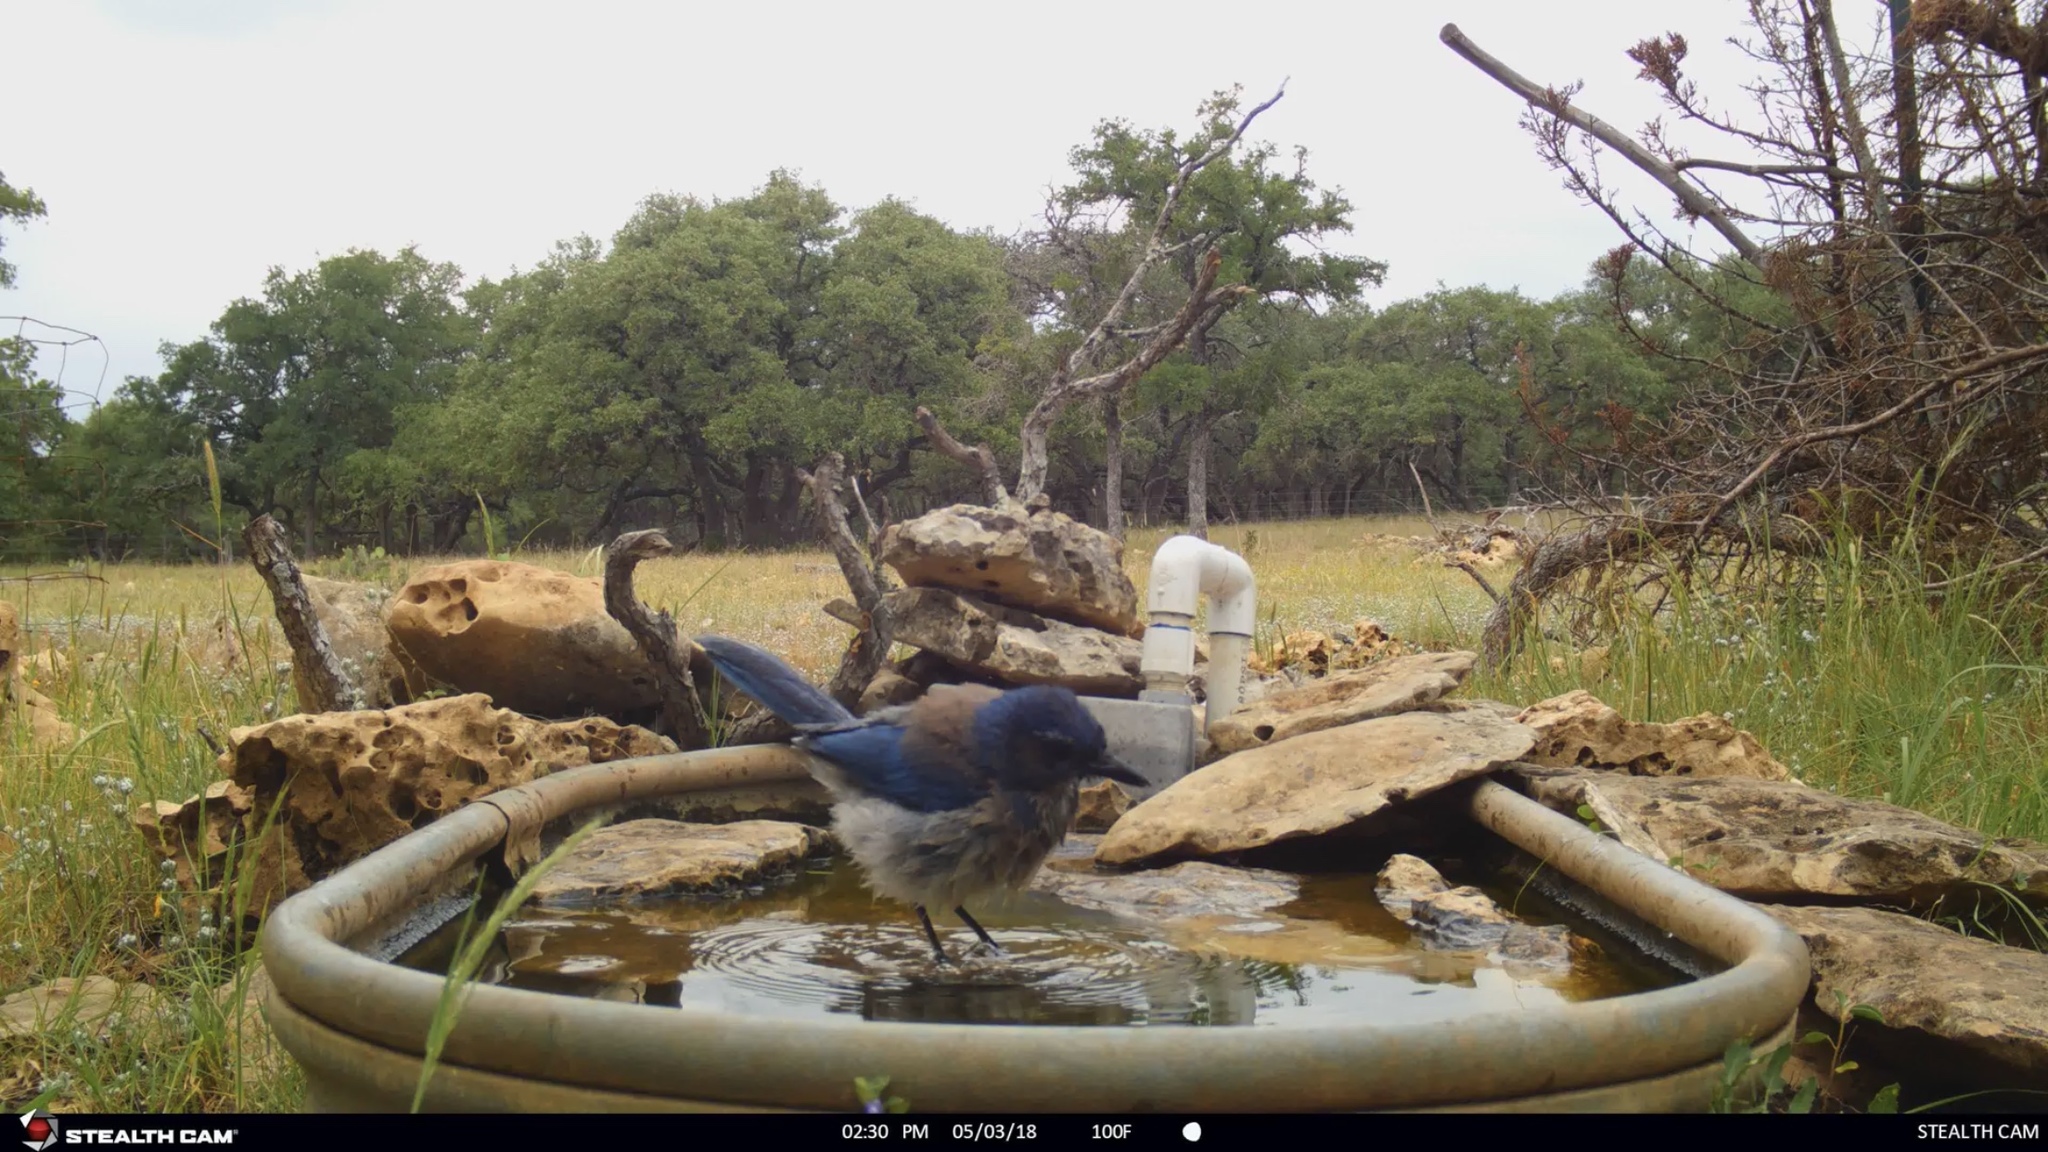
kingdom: Animalia
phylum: Chordata
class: Aves
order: Passeriformes
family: Corvidae
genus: Aphelocoma
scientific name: Aphelocoma woodhouseii
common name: Woodhouse's scrub-jay
